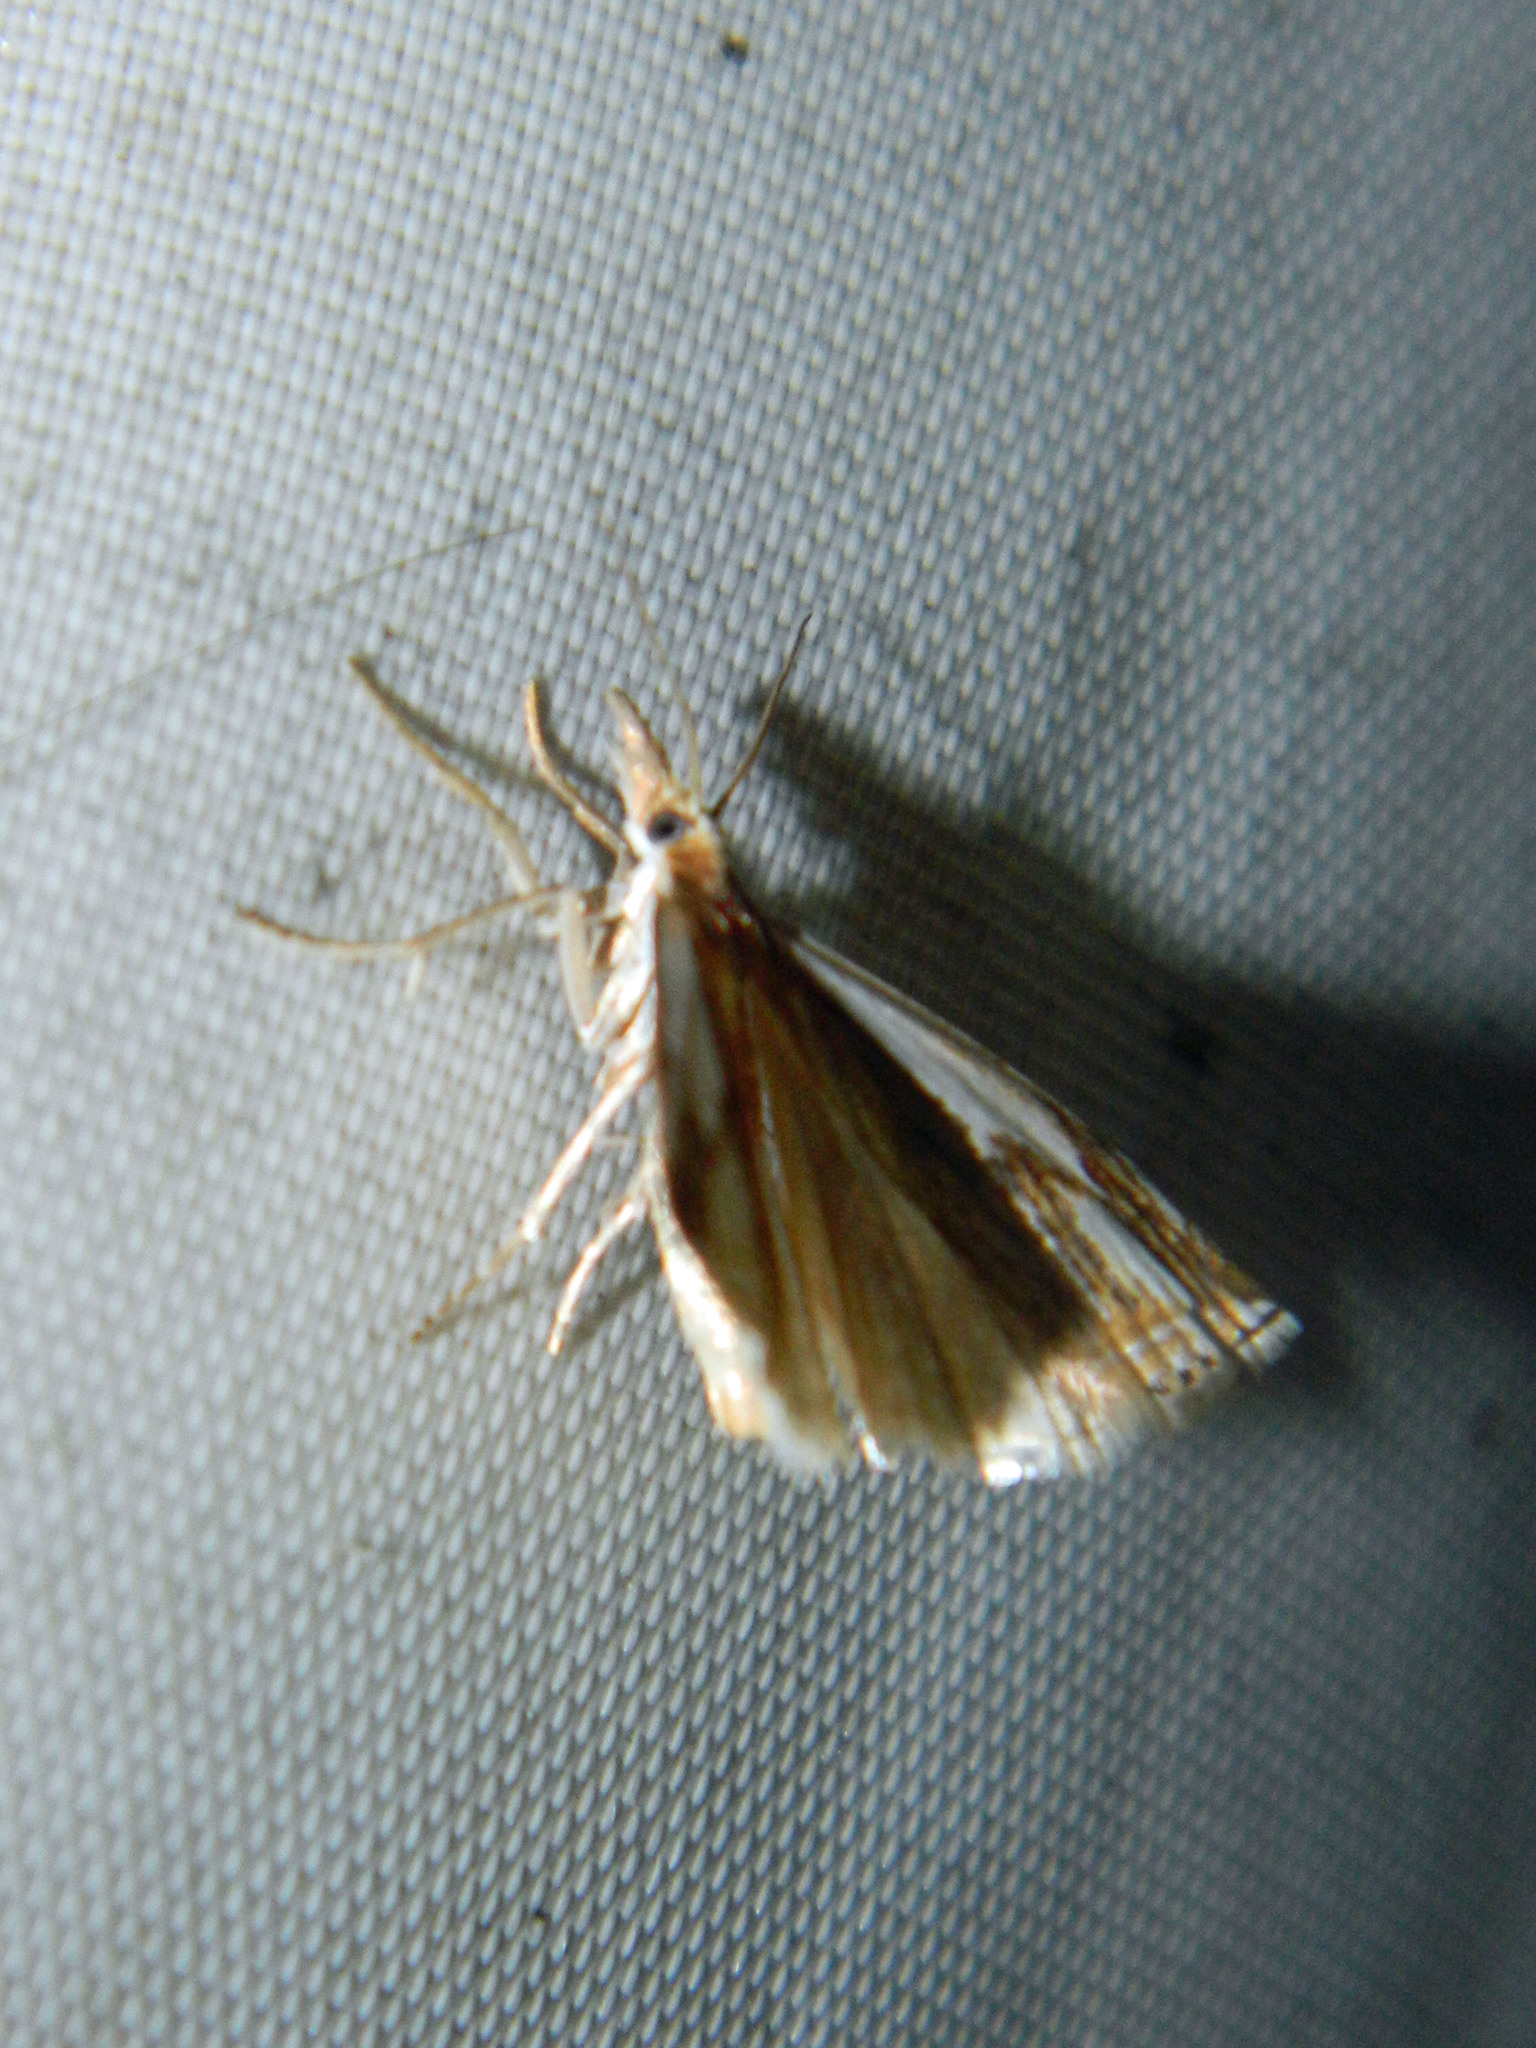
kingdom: Animalia
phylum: Arthropoda
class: Insecta
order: Lepidoptera
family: Crambidae
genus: Crambus
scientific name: Crambus agitatellus
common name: Double-banded grass-veneer
